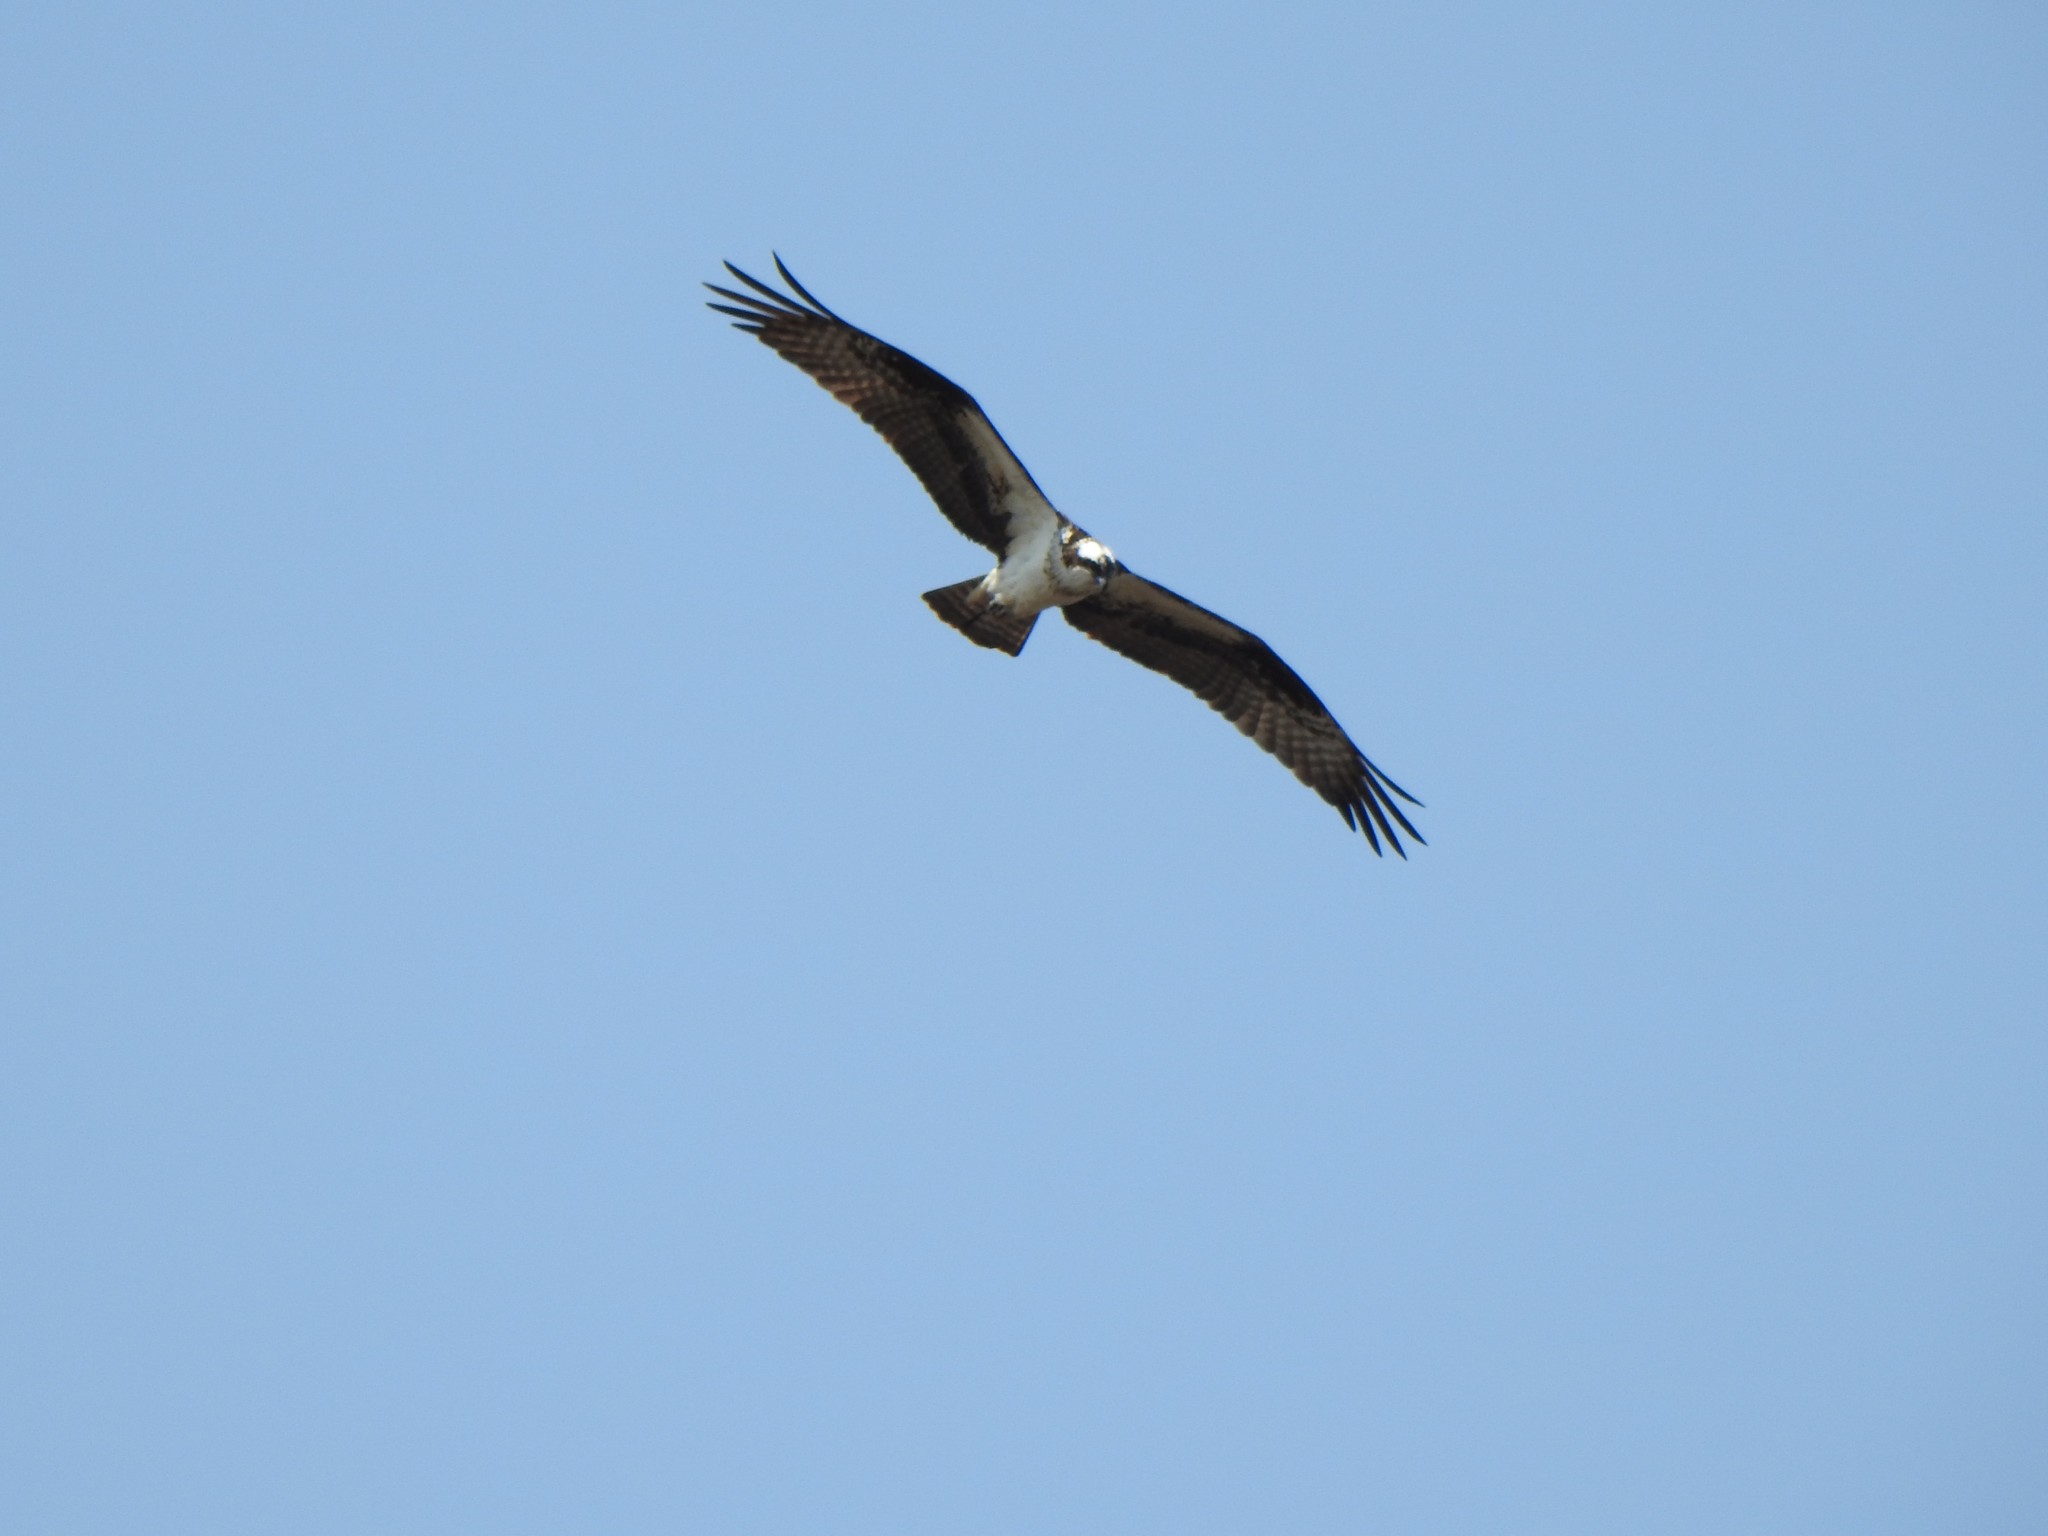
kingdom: Animalia
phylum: Chordata
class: Aves
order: Accipitriformes
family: Pandionidae
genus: Pandion
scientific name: Pandion haliaetus
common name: Osprey
